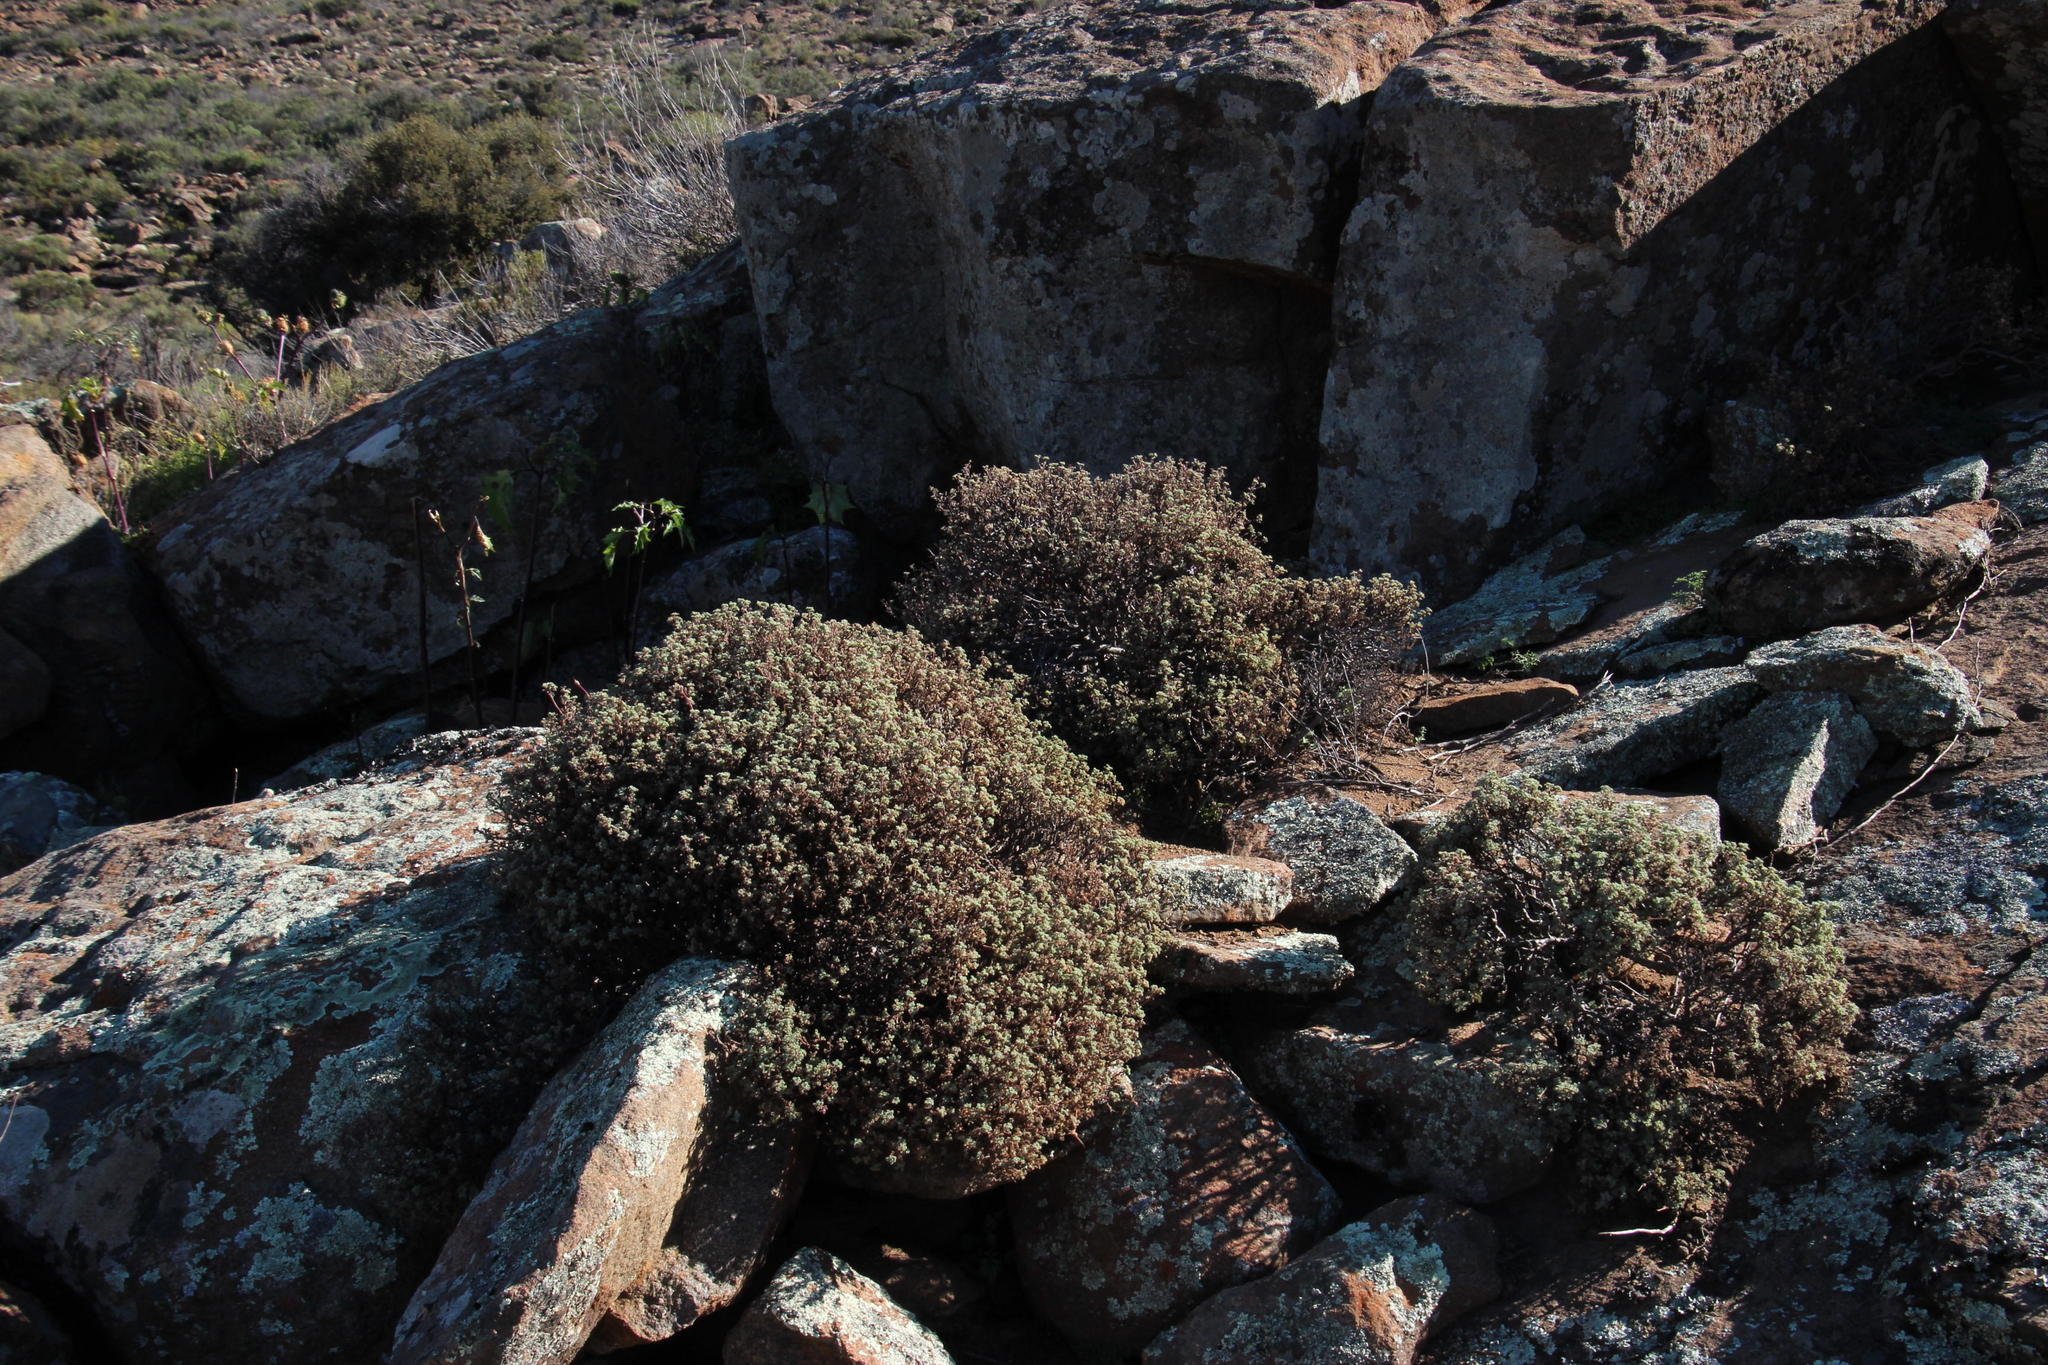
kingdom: Plantae
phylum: Tracheophyta
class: Magnoliopsida
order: Geraniales
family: Geraniaceae
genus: Pelargonium
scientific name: Pelargonium abrotanifolium
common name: Southernwood geranium
